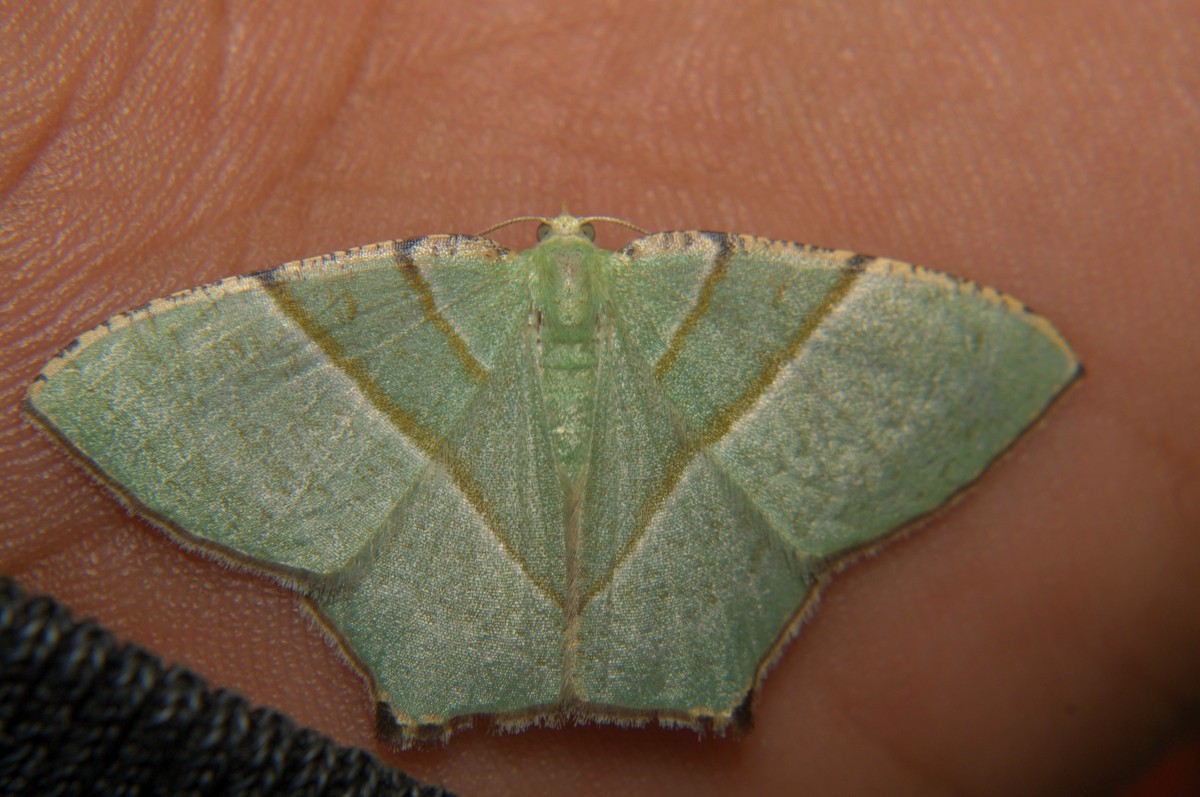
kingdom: Animalia
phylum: Arthropoda
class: Insecta
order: Lepidoptera
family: Geometridae
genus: Neohipparchus
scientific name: Neohipparchus vallata
